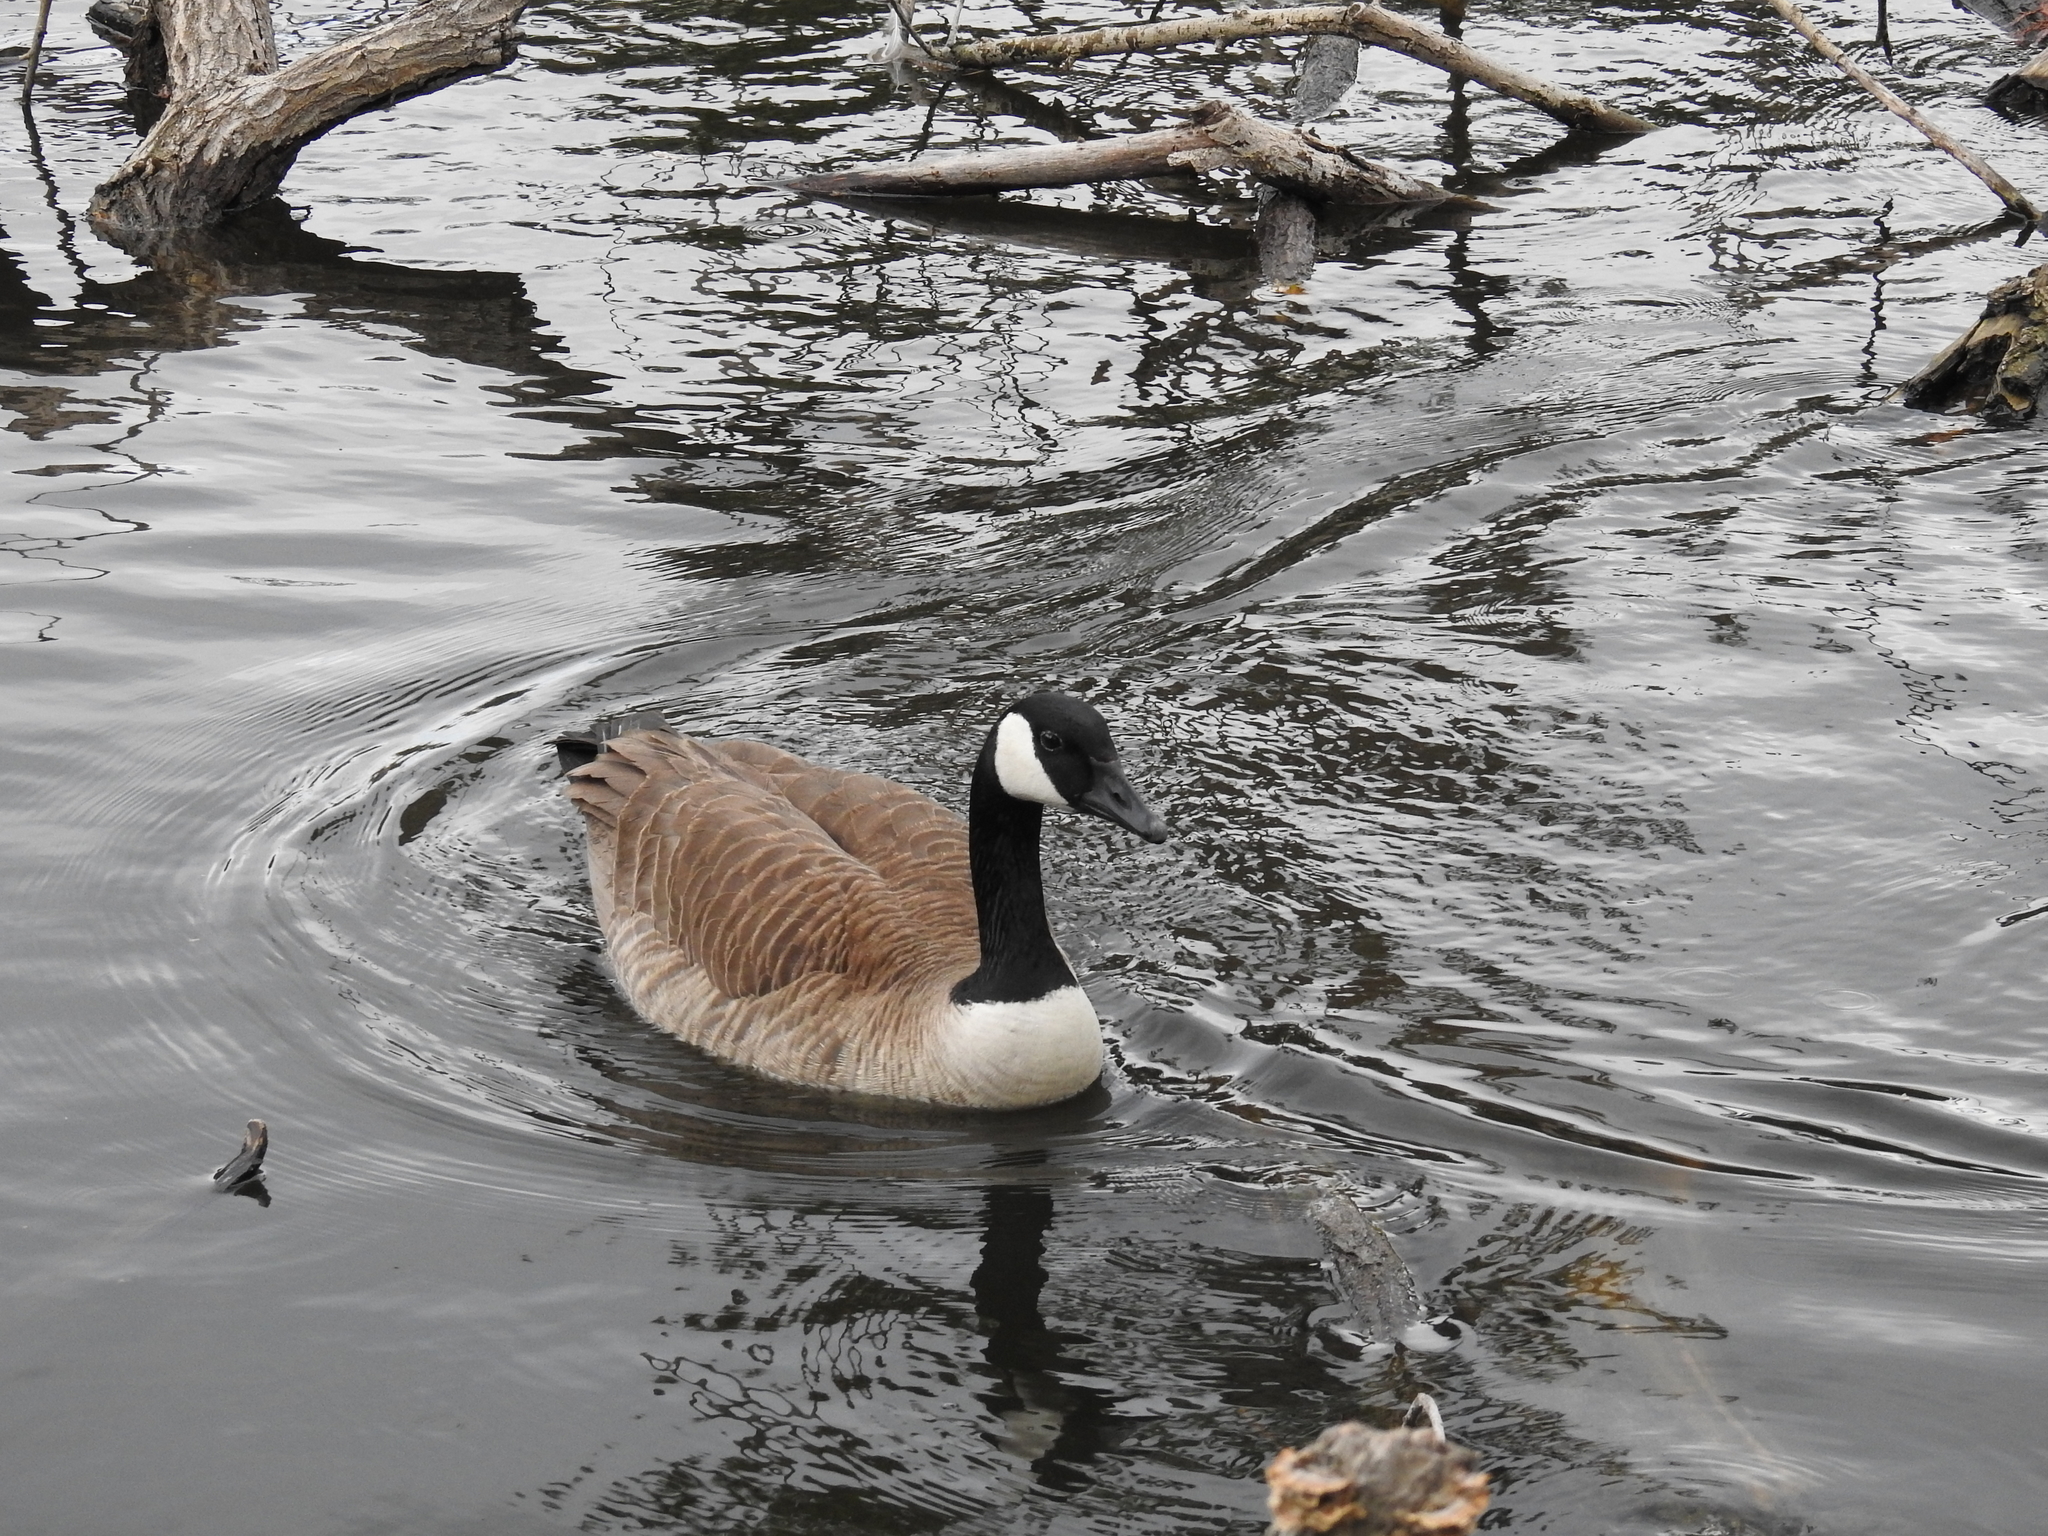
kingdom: Animalia
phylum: Chordata
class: Aves
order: Anseriformes
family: Anatidae
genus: Branta
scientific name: Branta canadensis
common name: Canada goose
